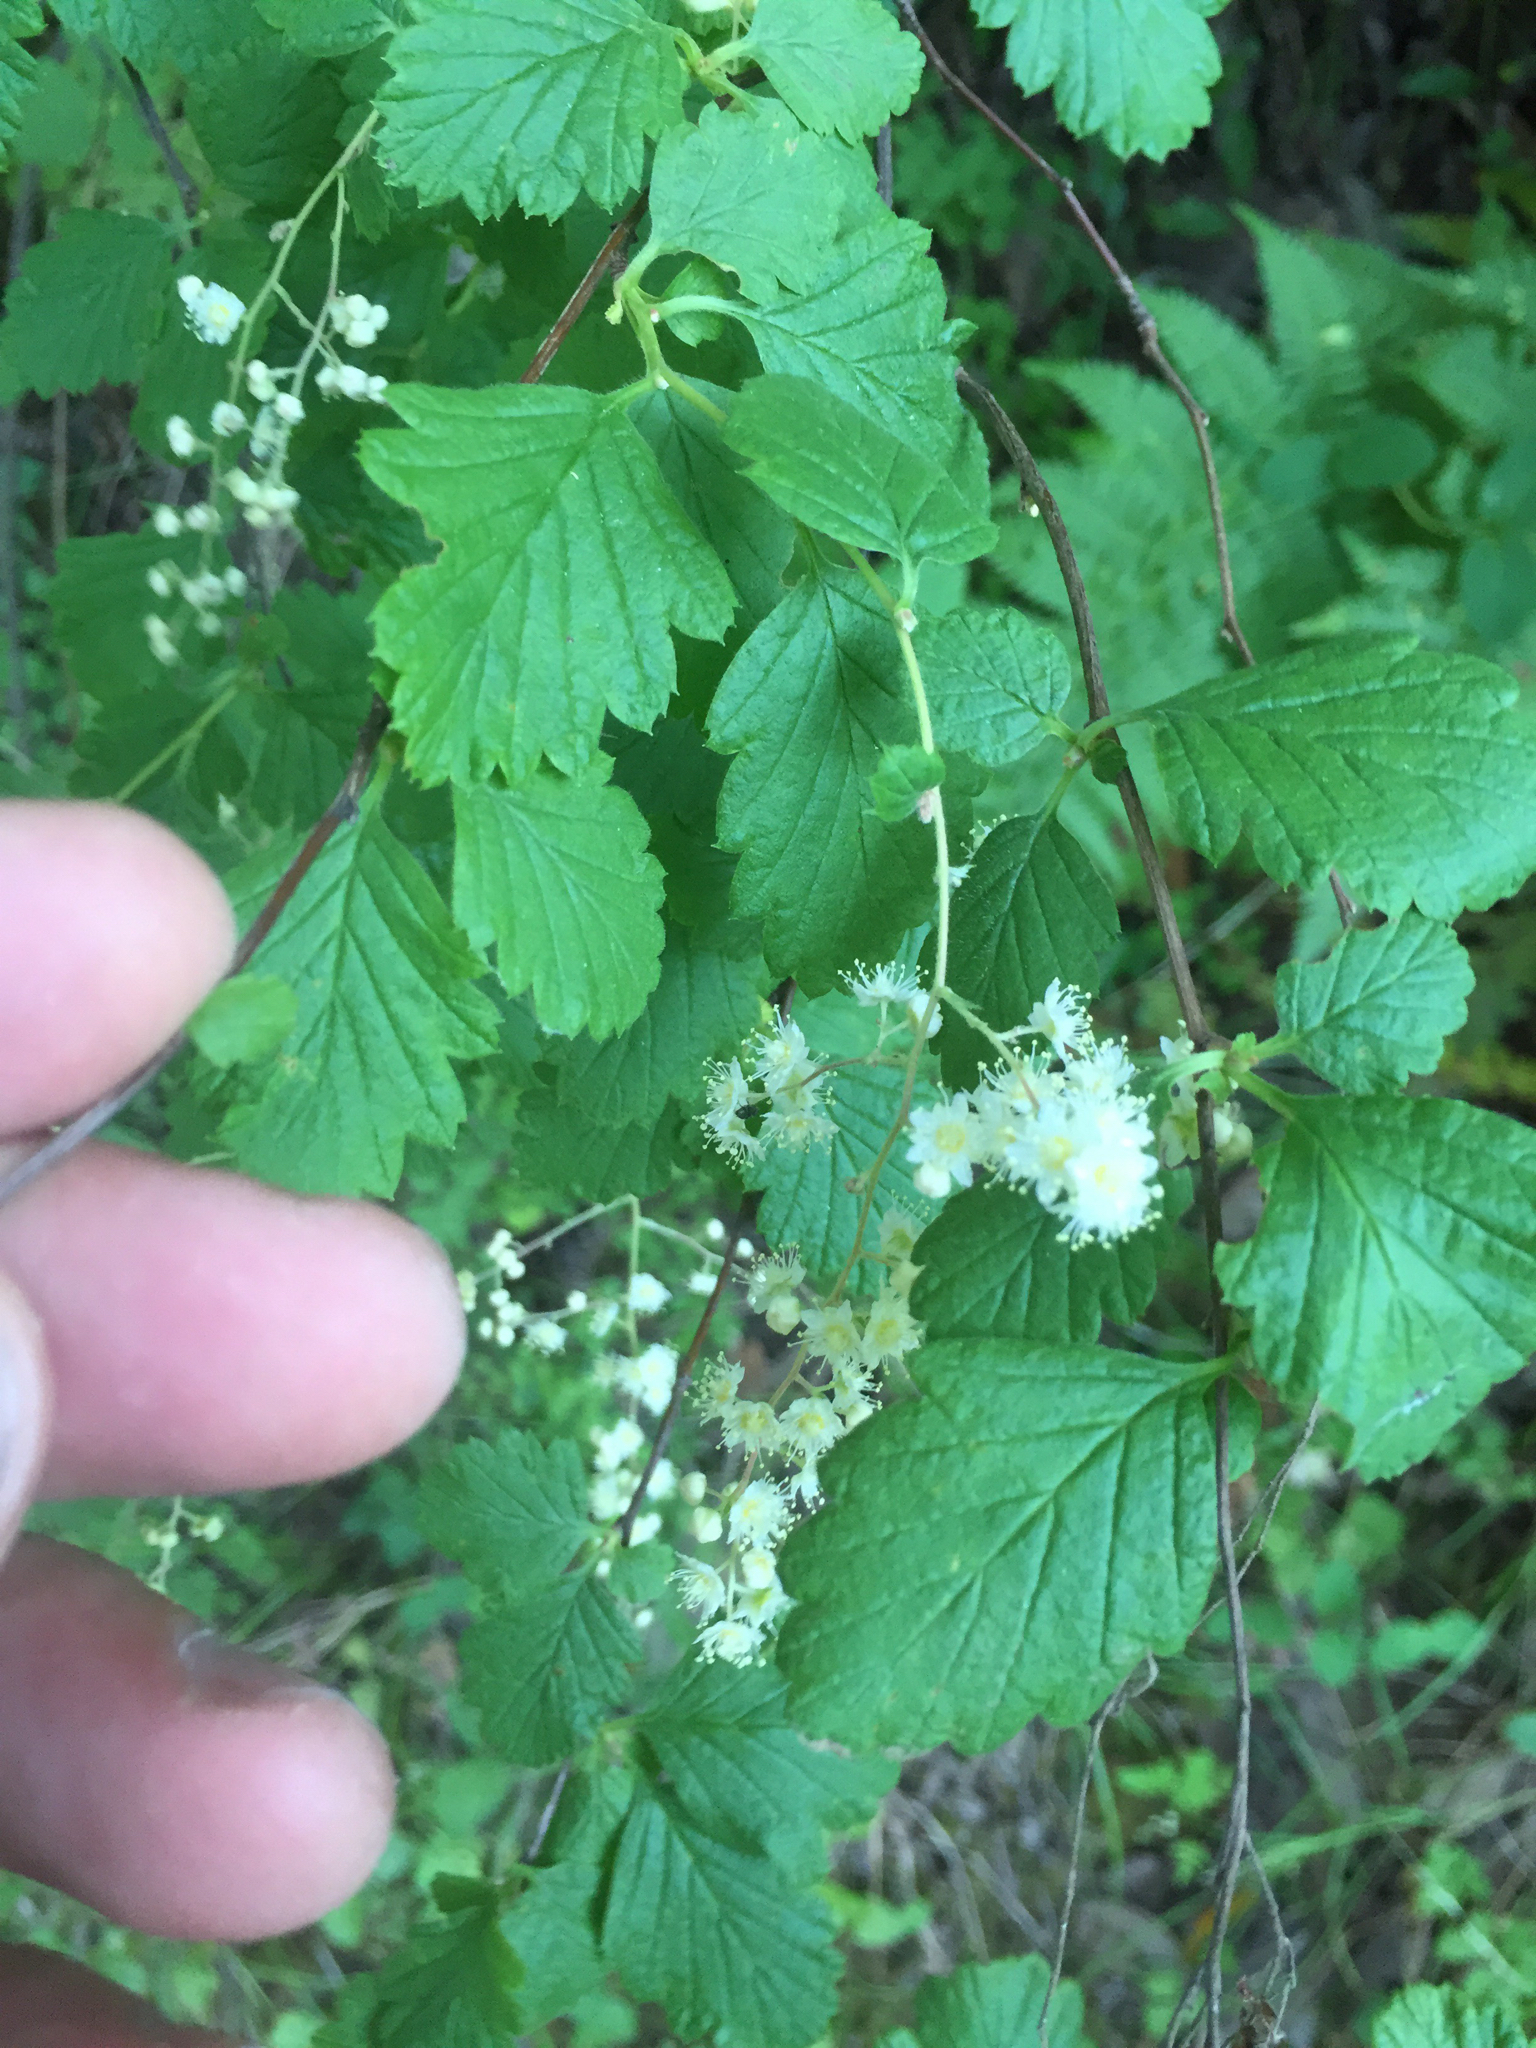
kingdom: Plantae
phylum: Tracheophyta
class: Magnoliopsida
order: Rosales
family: Rosaceae
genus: Holodiscus
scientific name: Holodiscus discolor
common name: Oceanspray
